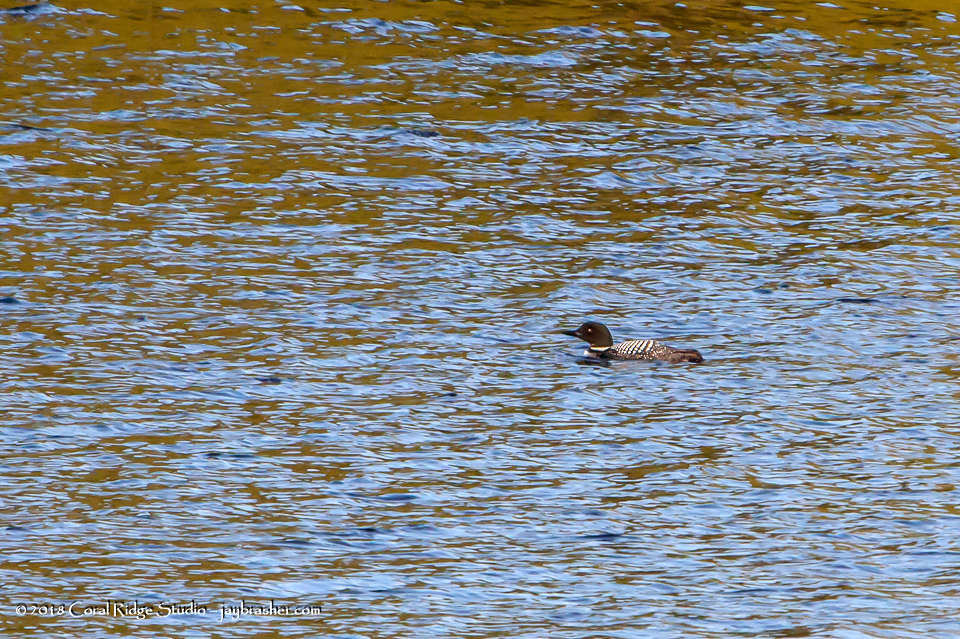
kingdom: Animalia
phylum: Chordata
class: Aves
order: Gaviiformes
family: Gaviidae
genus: Gavia
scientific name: Gavia immer
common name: Common loon
